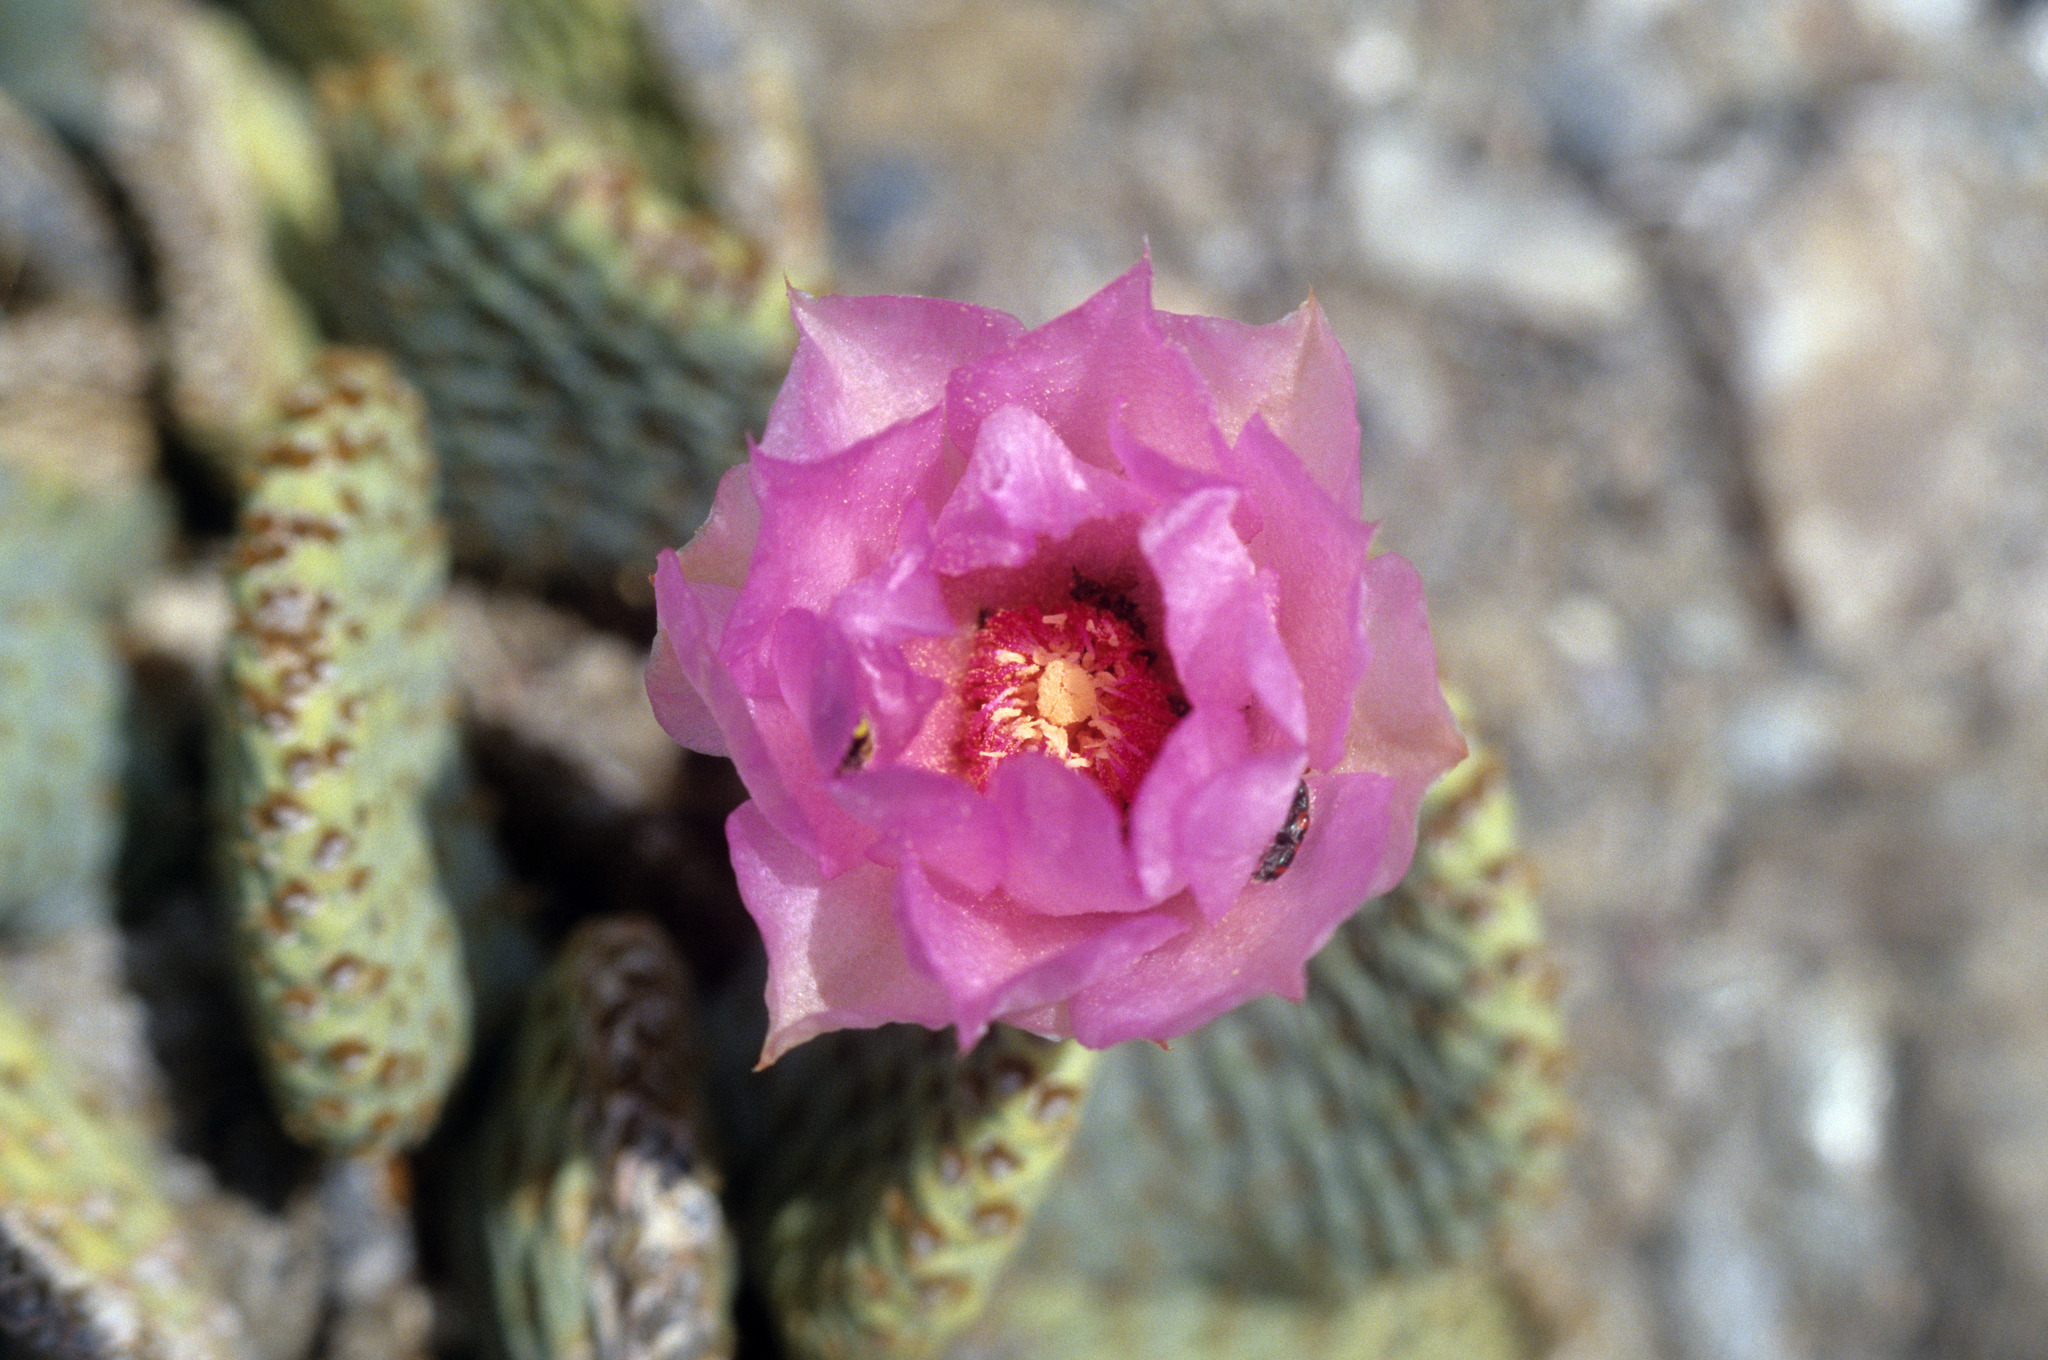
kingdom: Plantae
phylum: Tracheophyta
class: Magnoliopsida
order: Caryophyllales
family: Cactaceae
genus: Opuntia
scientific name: Opuntia basilaris
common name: Beavertail prickly-pear
